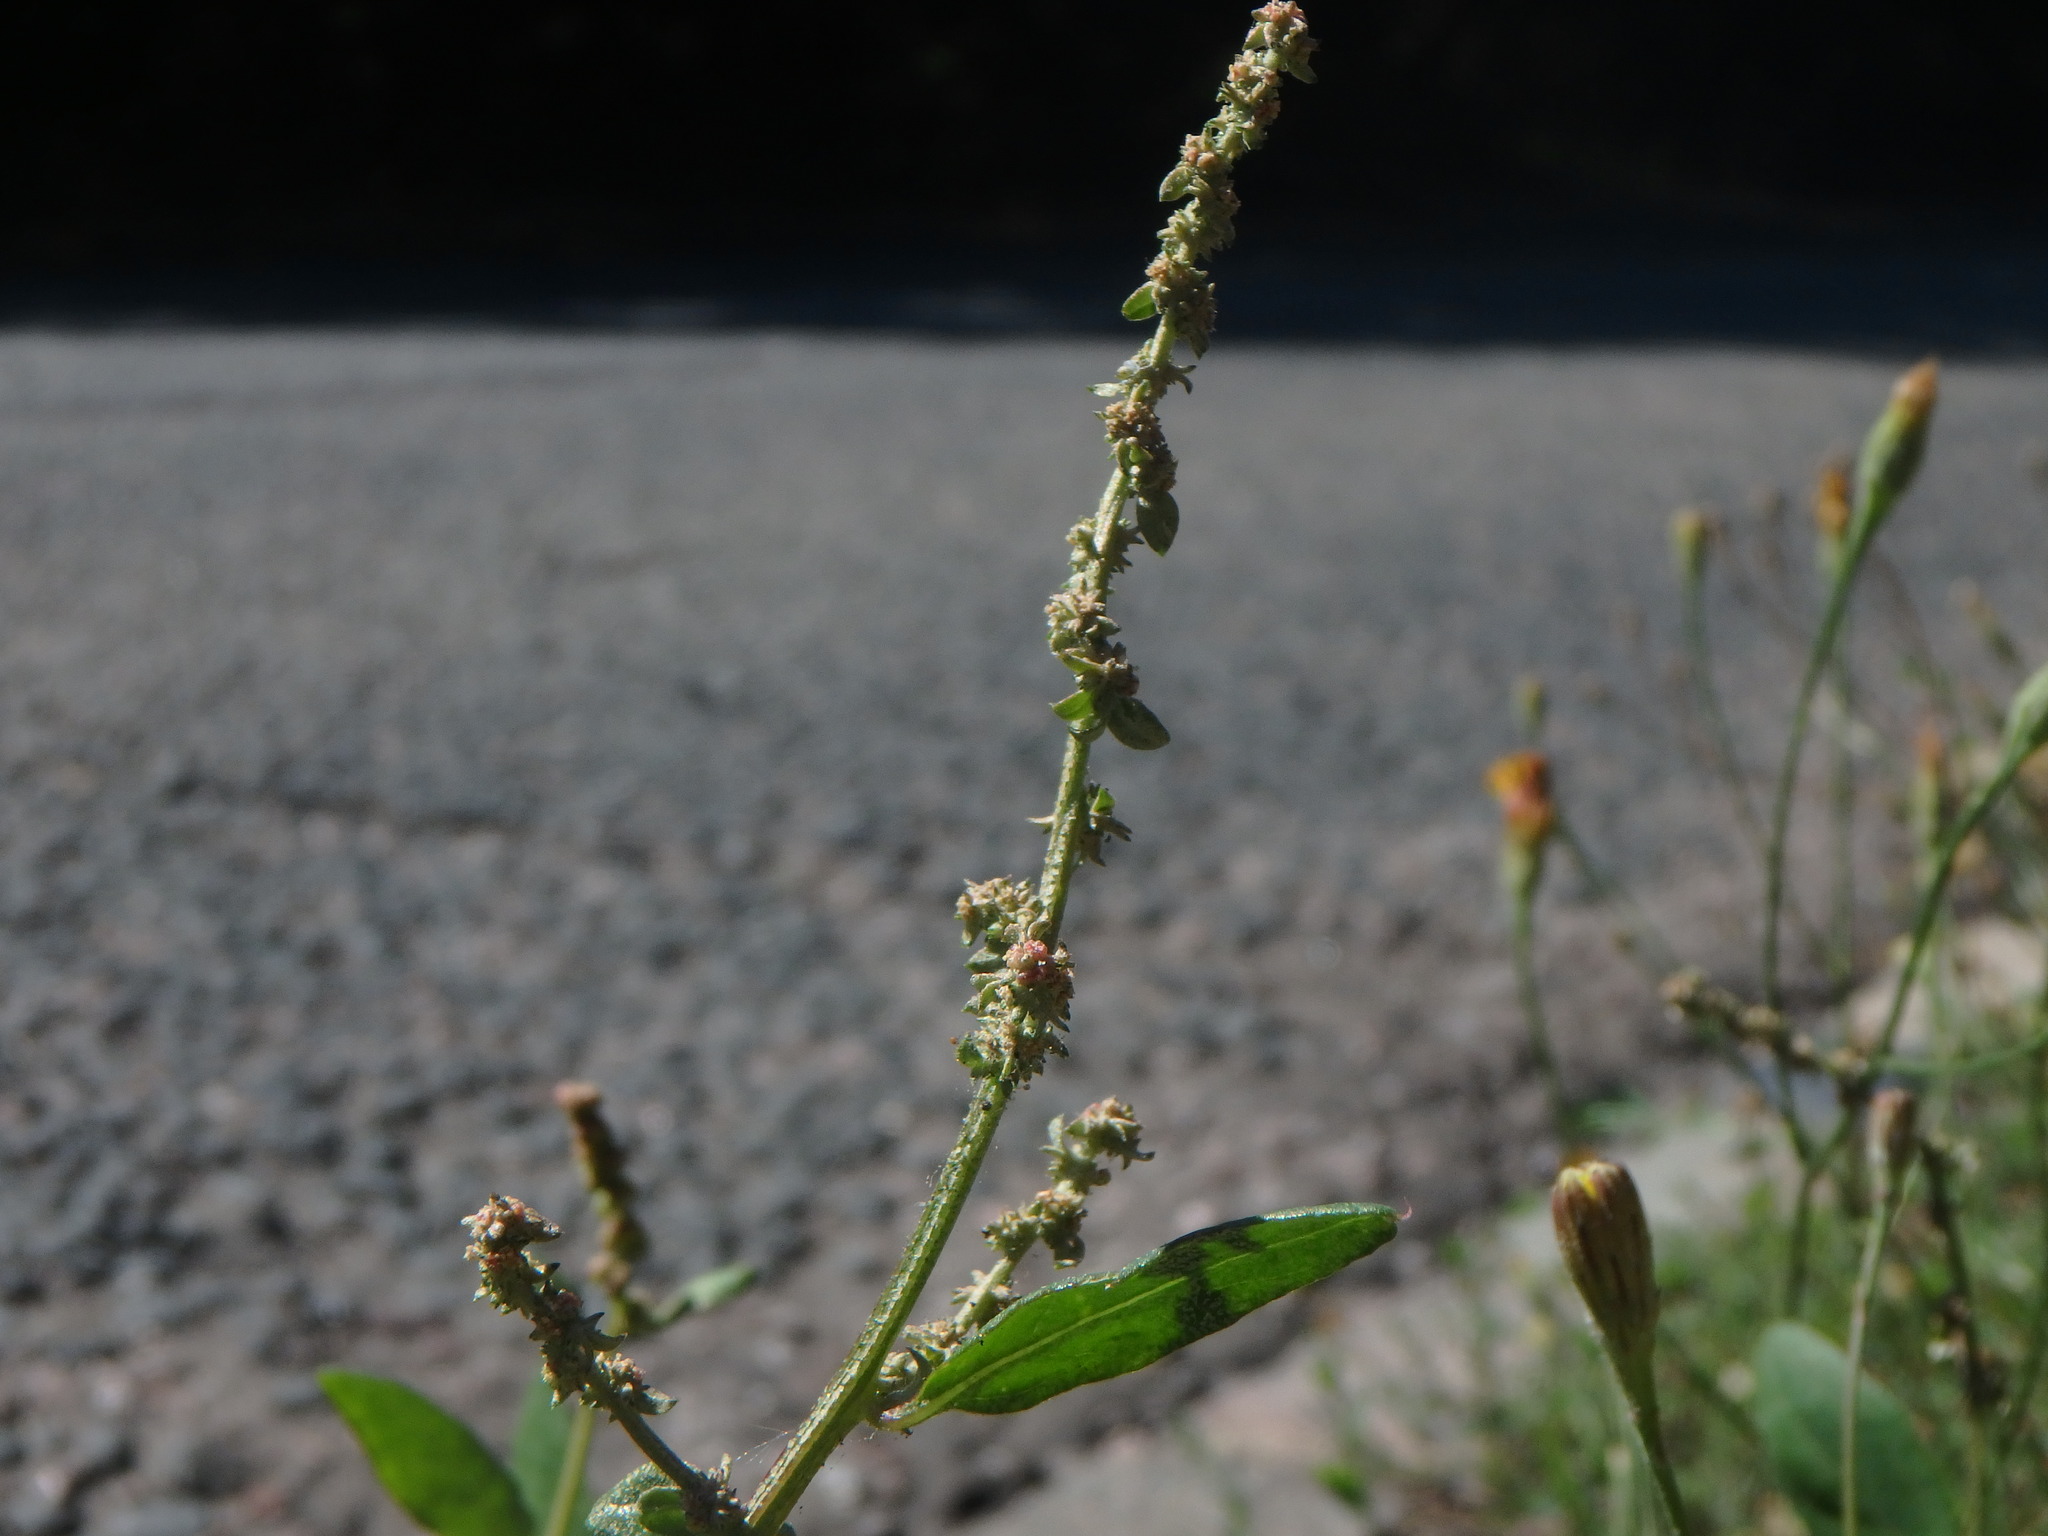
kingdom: Plantae
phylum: Tracheophyta
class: Magnoliopsida
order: Caryophyllales
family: Amaranthaceae
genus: Atriplex
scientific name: Atriplex prostrata
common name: Spear-leaved orache
